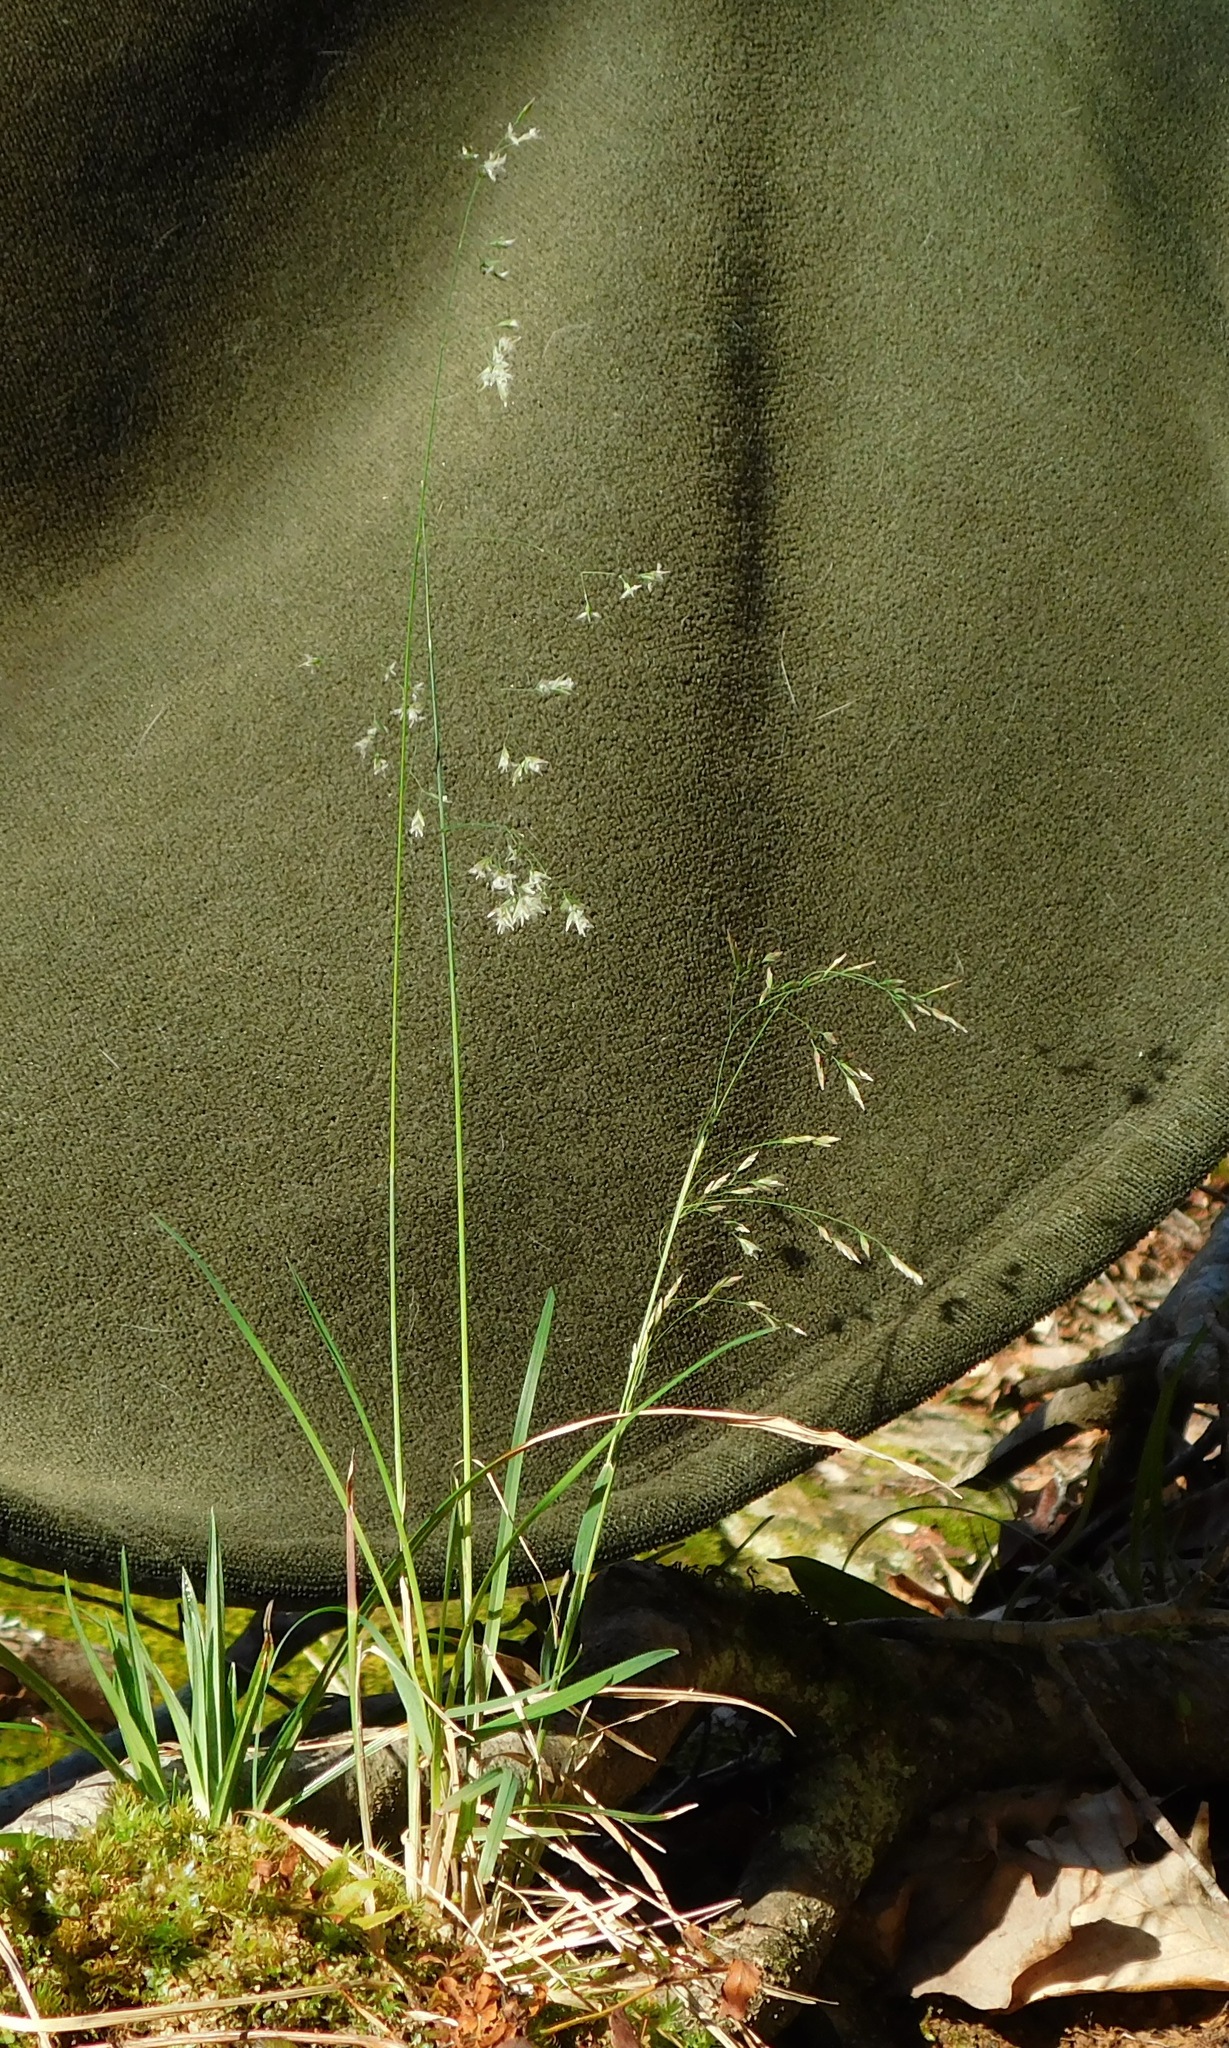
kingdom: Plantae
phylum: Tracheophyta
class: Liliopsida
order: Poales
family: Poaceae
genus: Poa
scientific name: Poa cuspidata
